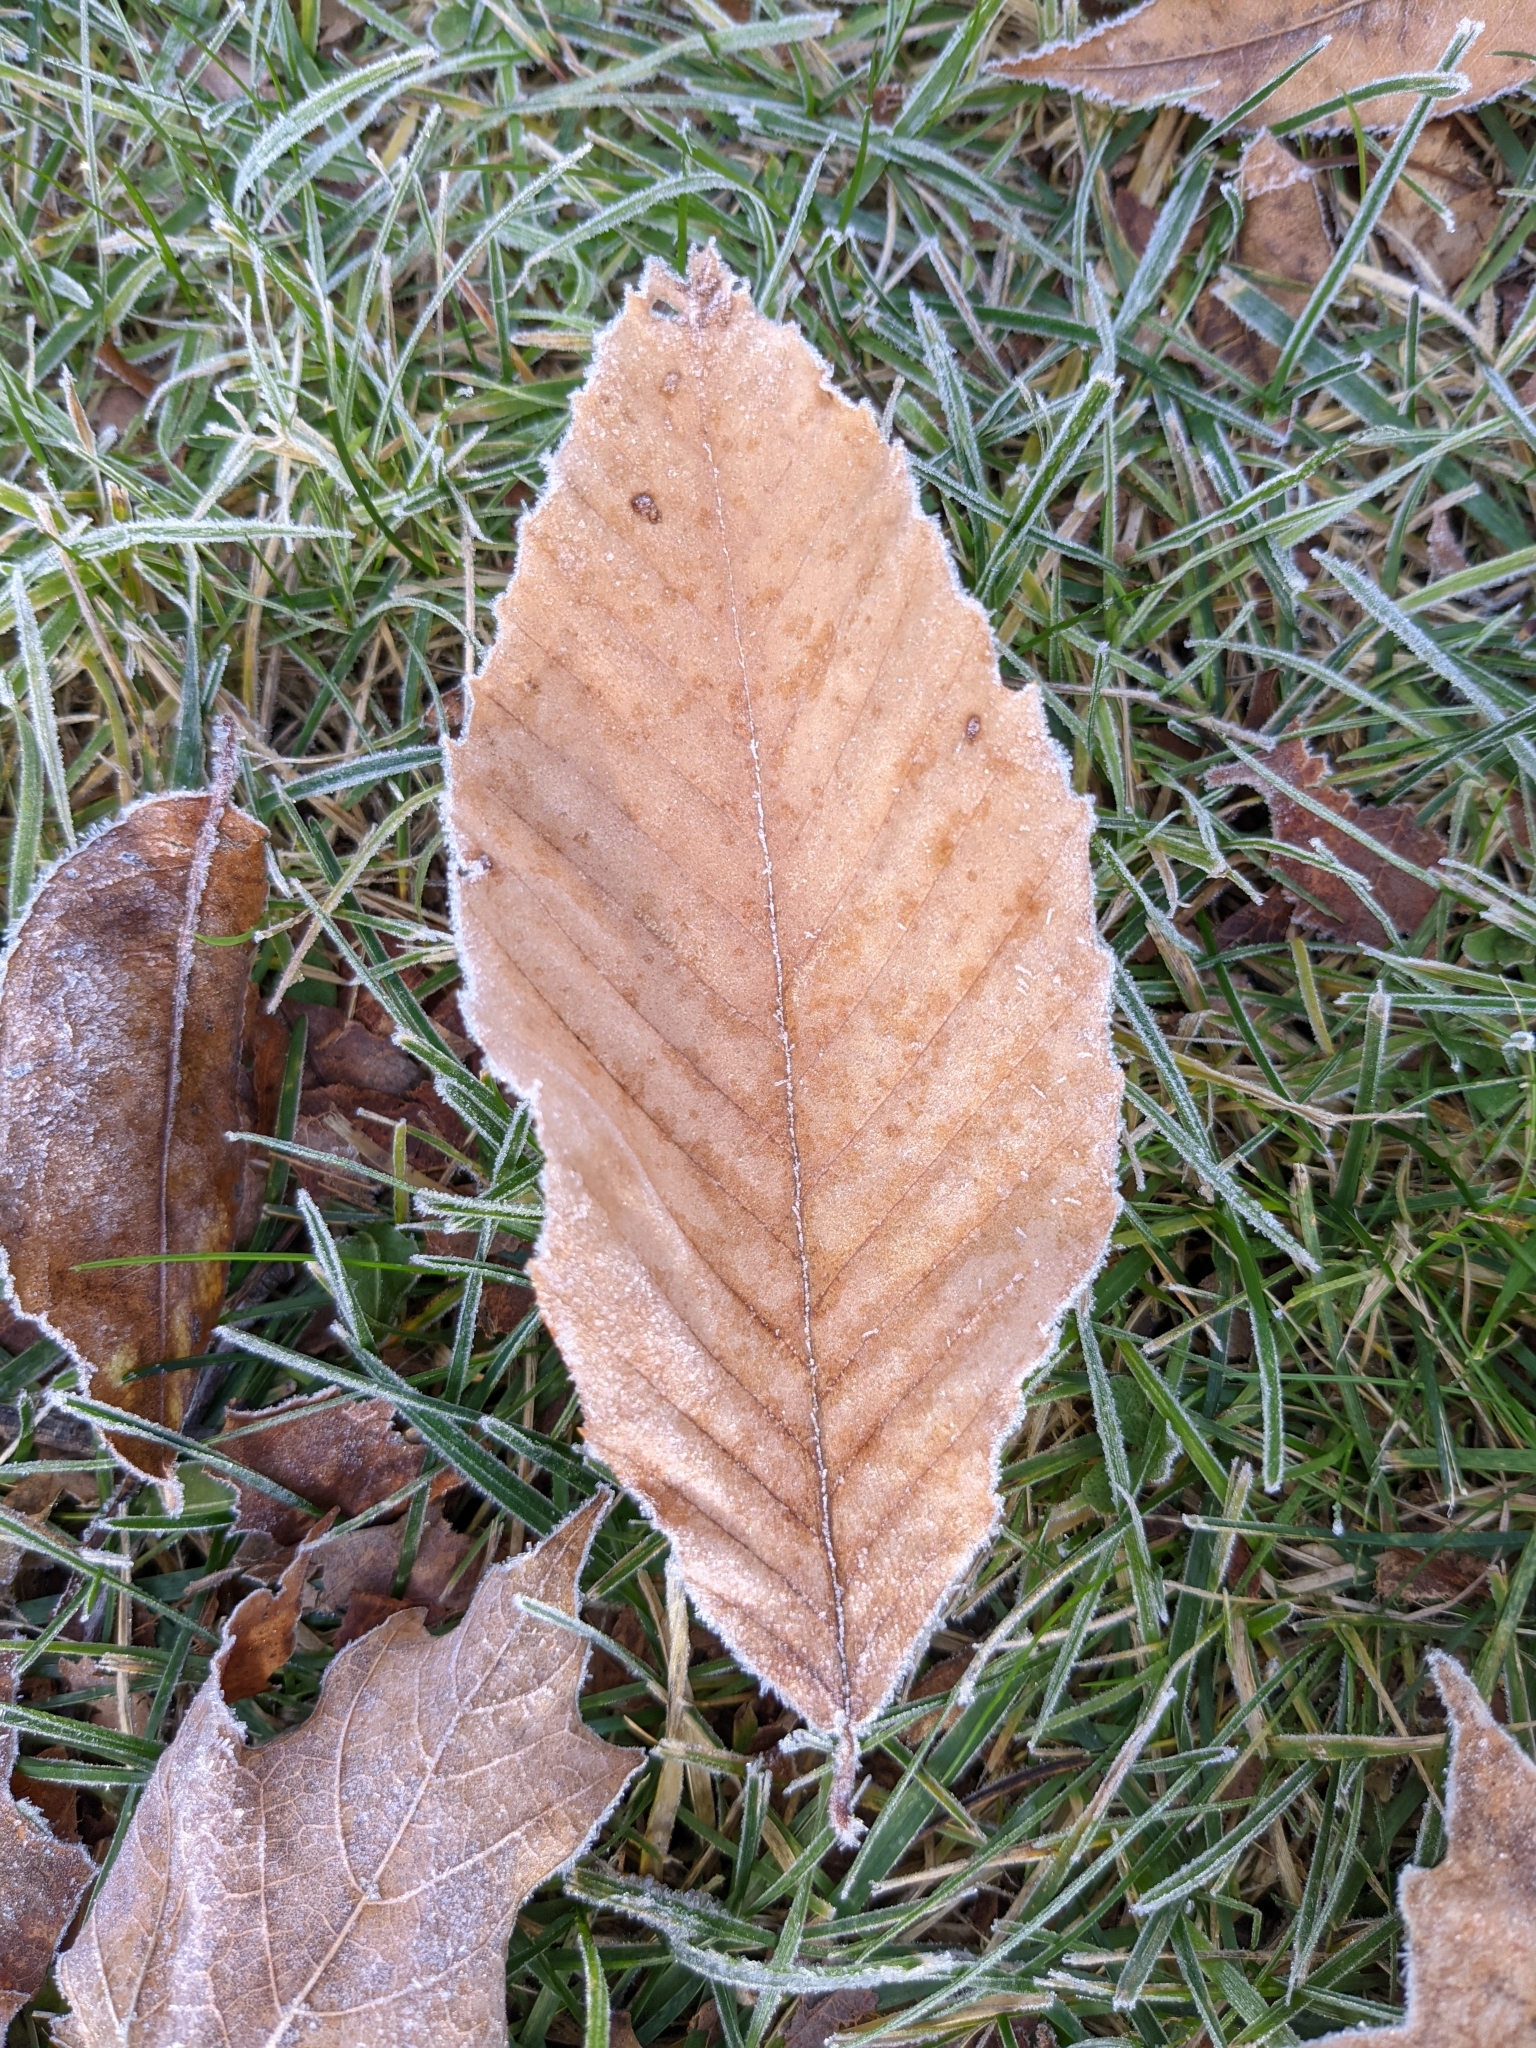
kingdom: Plantae
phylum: Tracheophyta
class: Magnoliopsida
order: Fagales
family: Fagaceae
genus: Fagus
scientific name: Fagus grandifolia
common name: American beech
